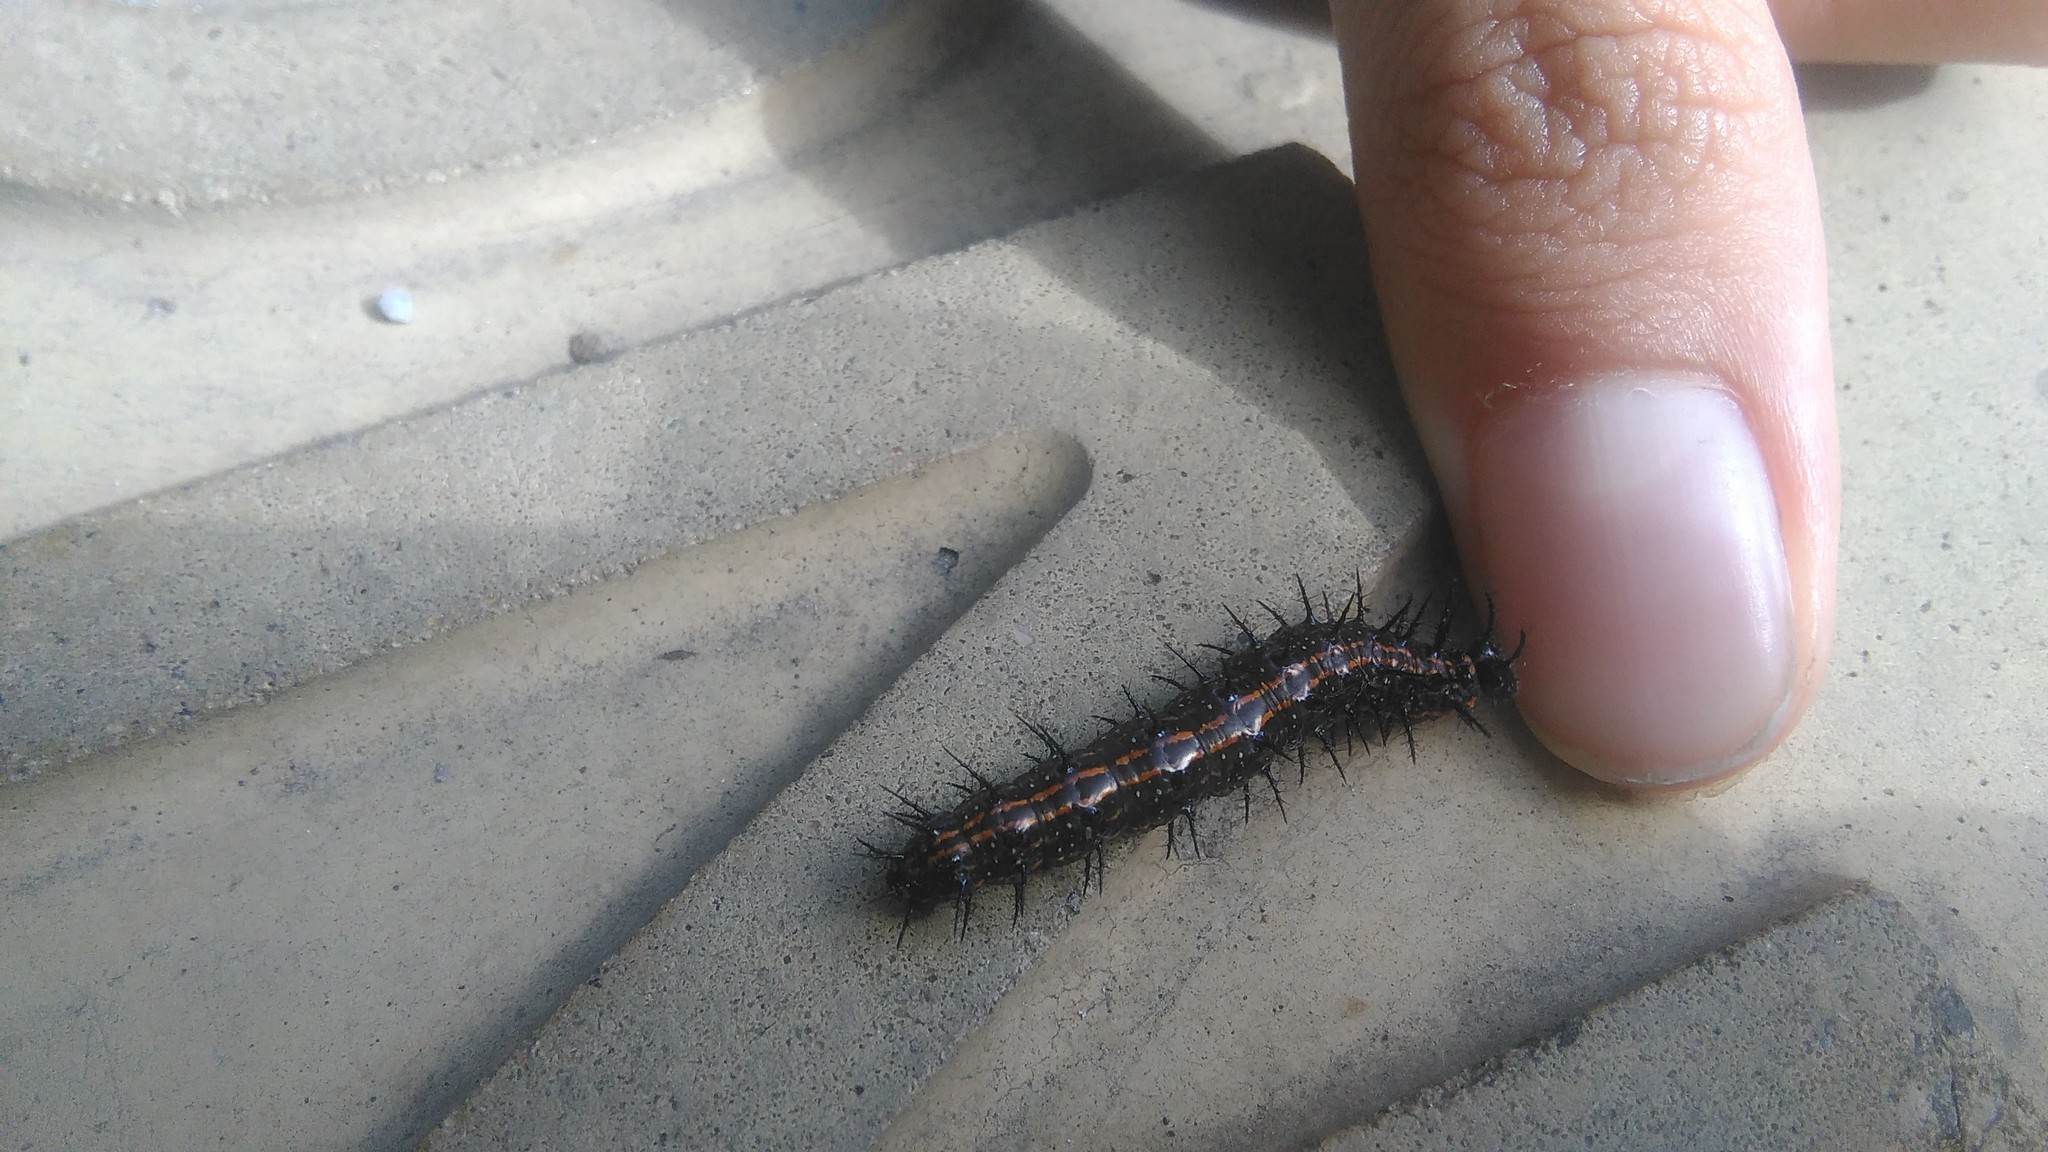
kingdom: Animalia
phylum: Arthropoda
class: Insecta
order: Lepidoptera
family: Nymphalidae
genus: Dione
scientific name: Dione vanillae
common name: Gulf fritillary
